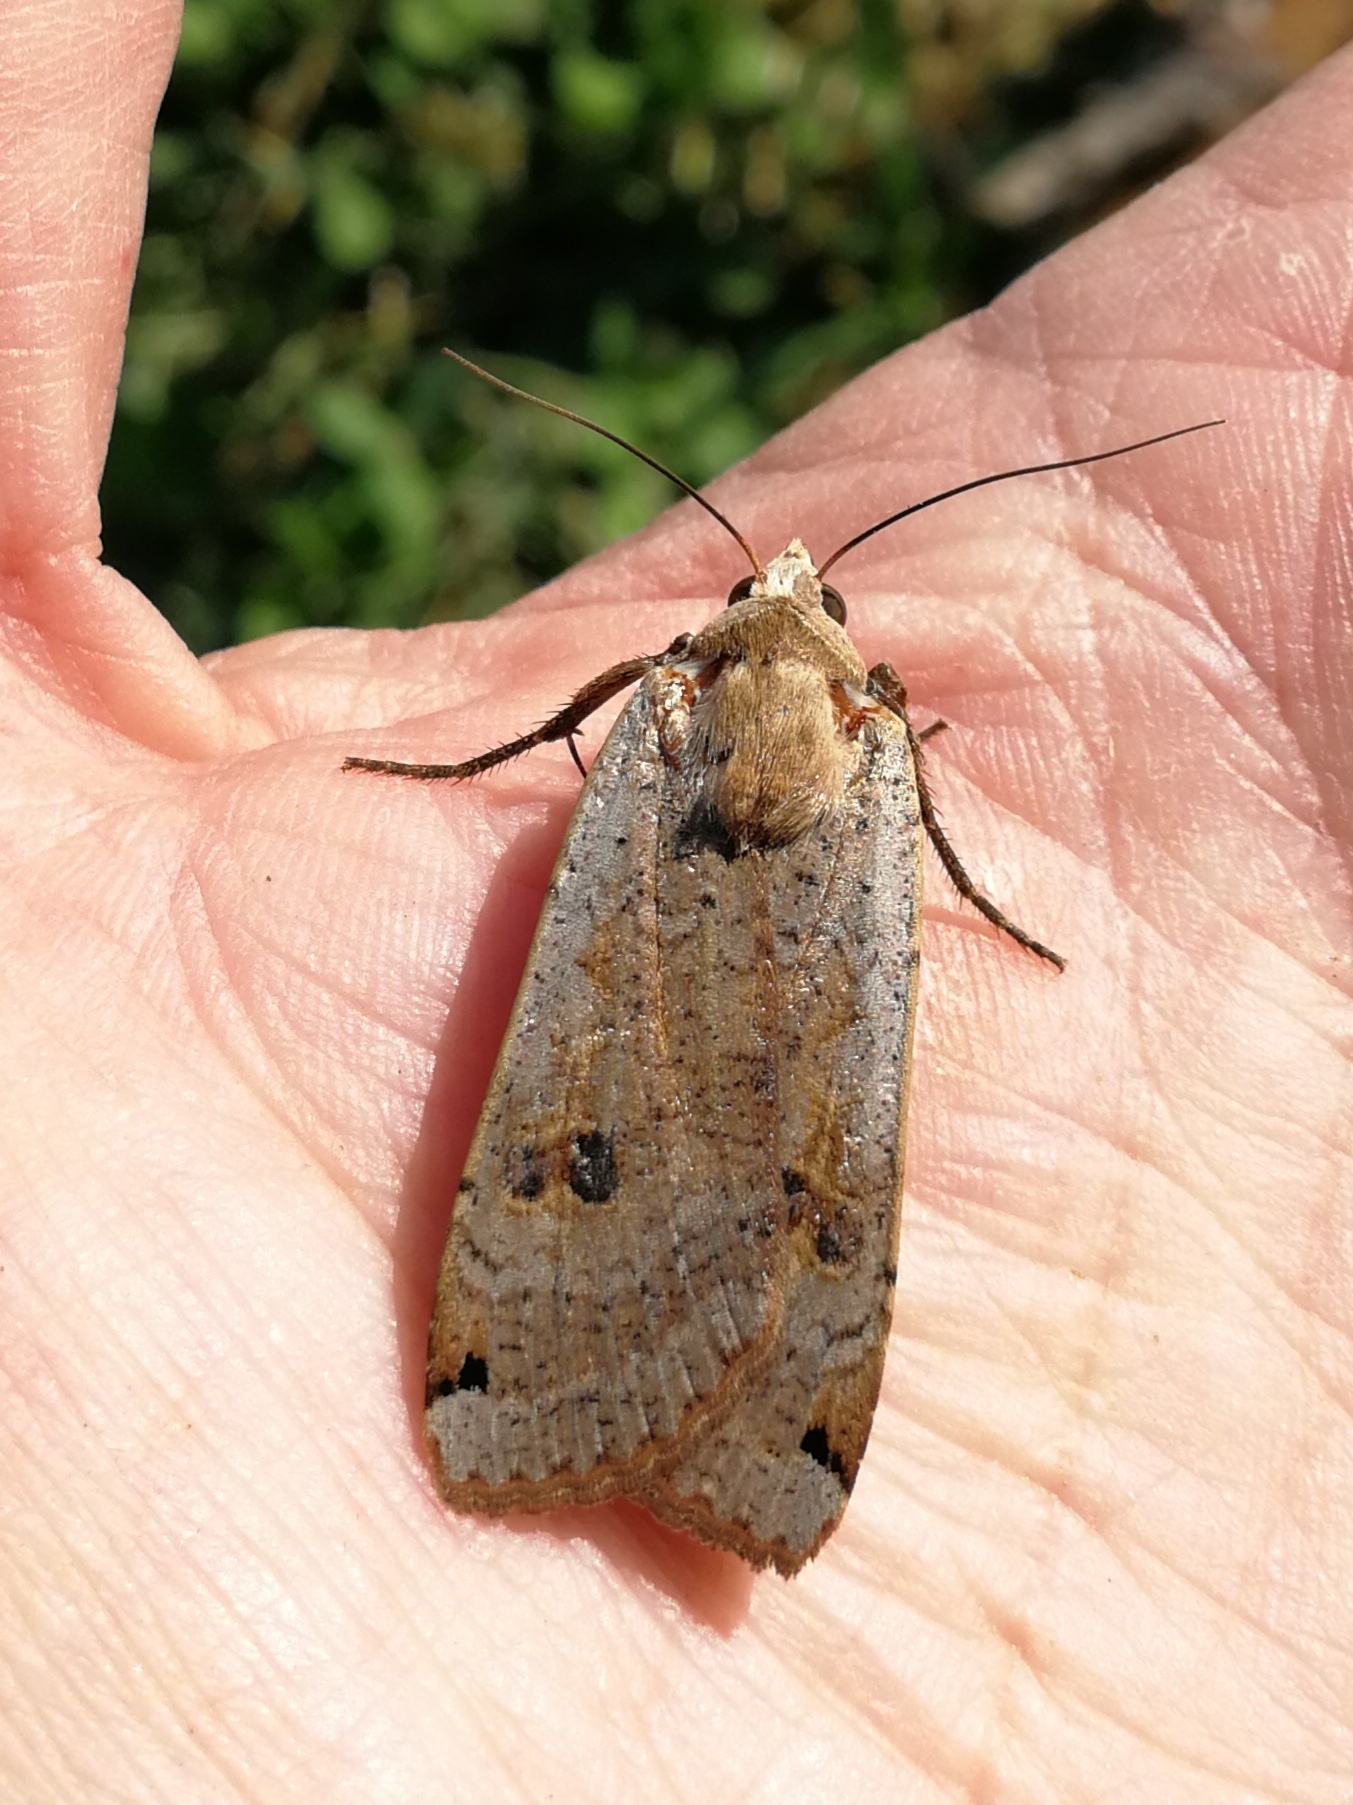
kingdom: Animalia
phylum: Arthropoda
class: Insecta
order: Lepidoptera
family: Noctuidae
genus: Noctua
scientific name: Noctua pronuba
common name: Large yellow underwing
